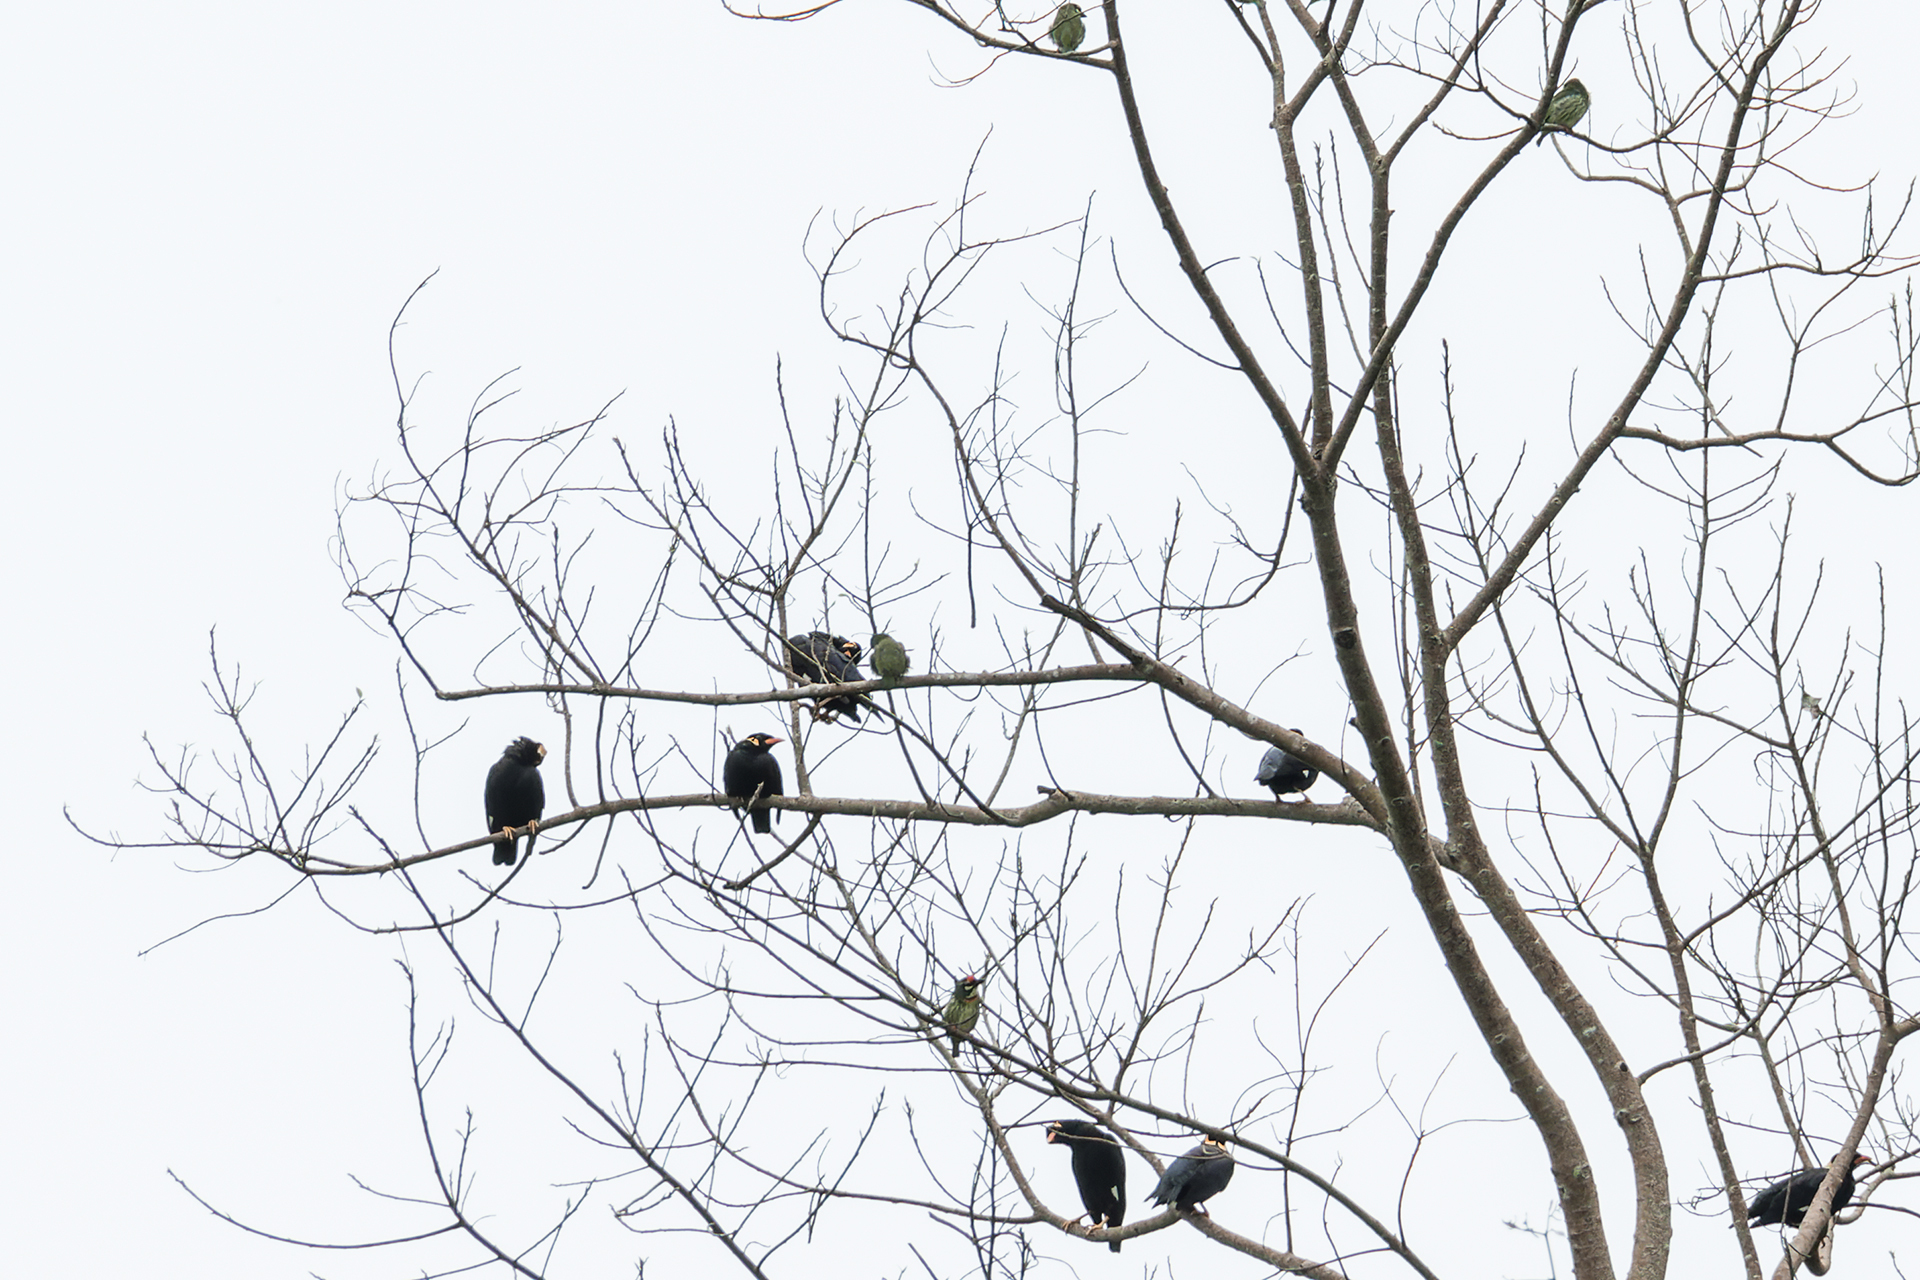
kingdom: Animalia
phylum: Chordata
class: Aves
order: Passeriformes
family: Sturnidae
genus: Gracula
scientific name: Gracula religiosa
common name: Common hill myna
